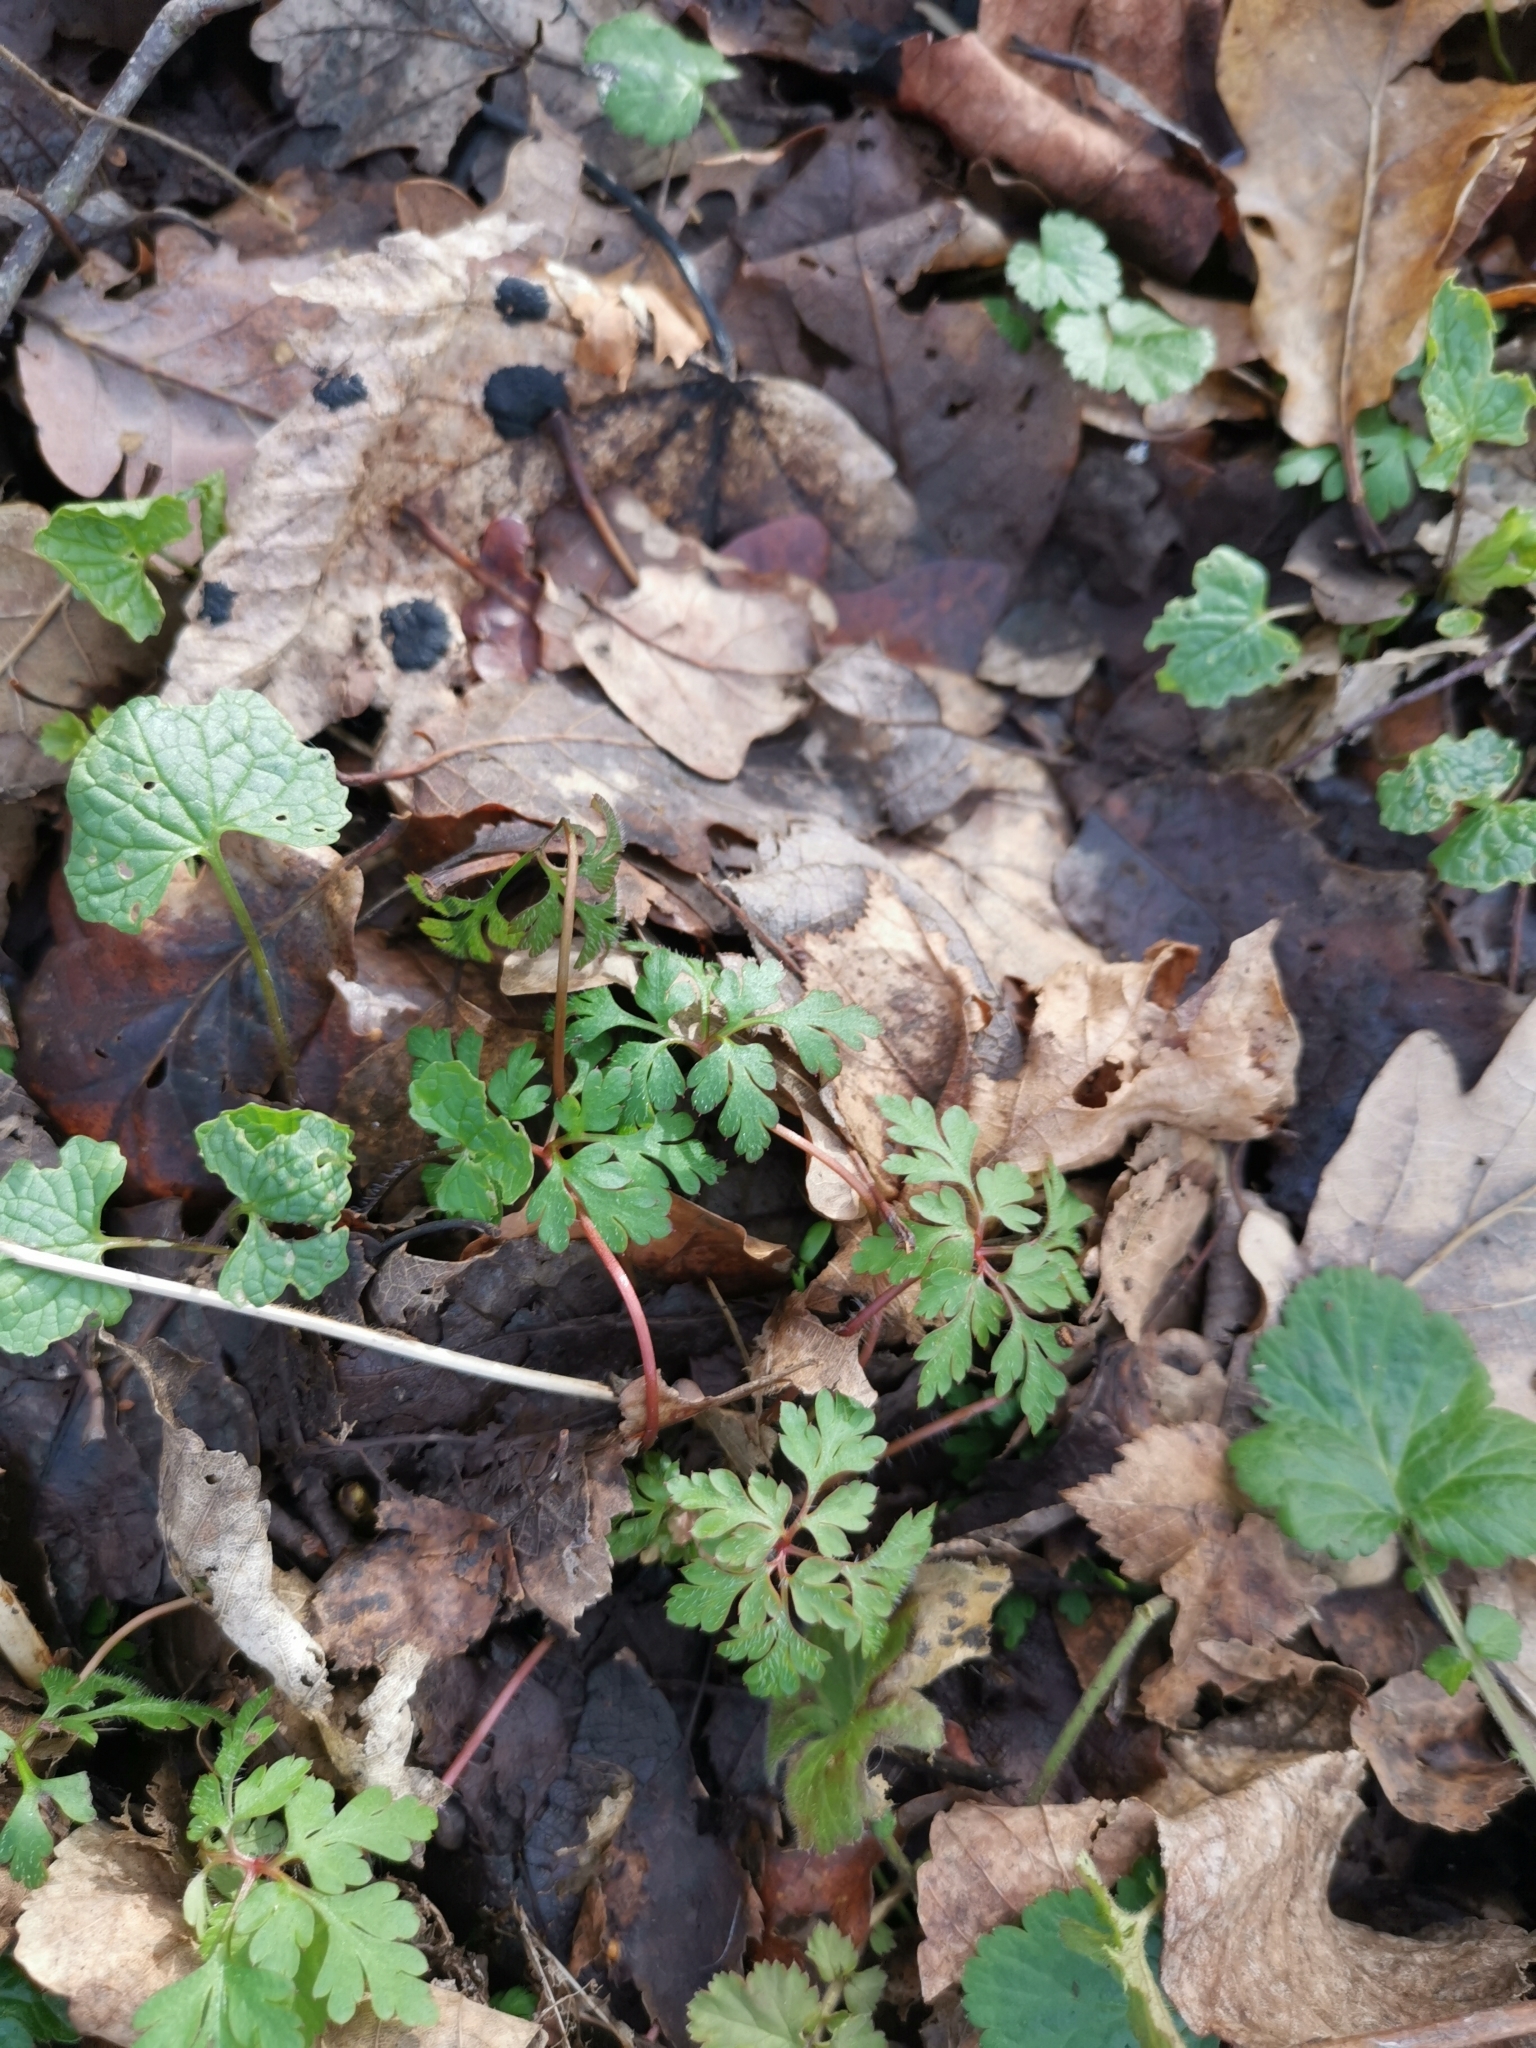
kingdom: Plantae
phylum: Tracheophyta
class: Magnoliopsida
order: Geraniales
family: Geraniaceae
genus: Geranium
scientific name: Geranium robertianum
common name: Herb-robert
